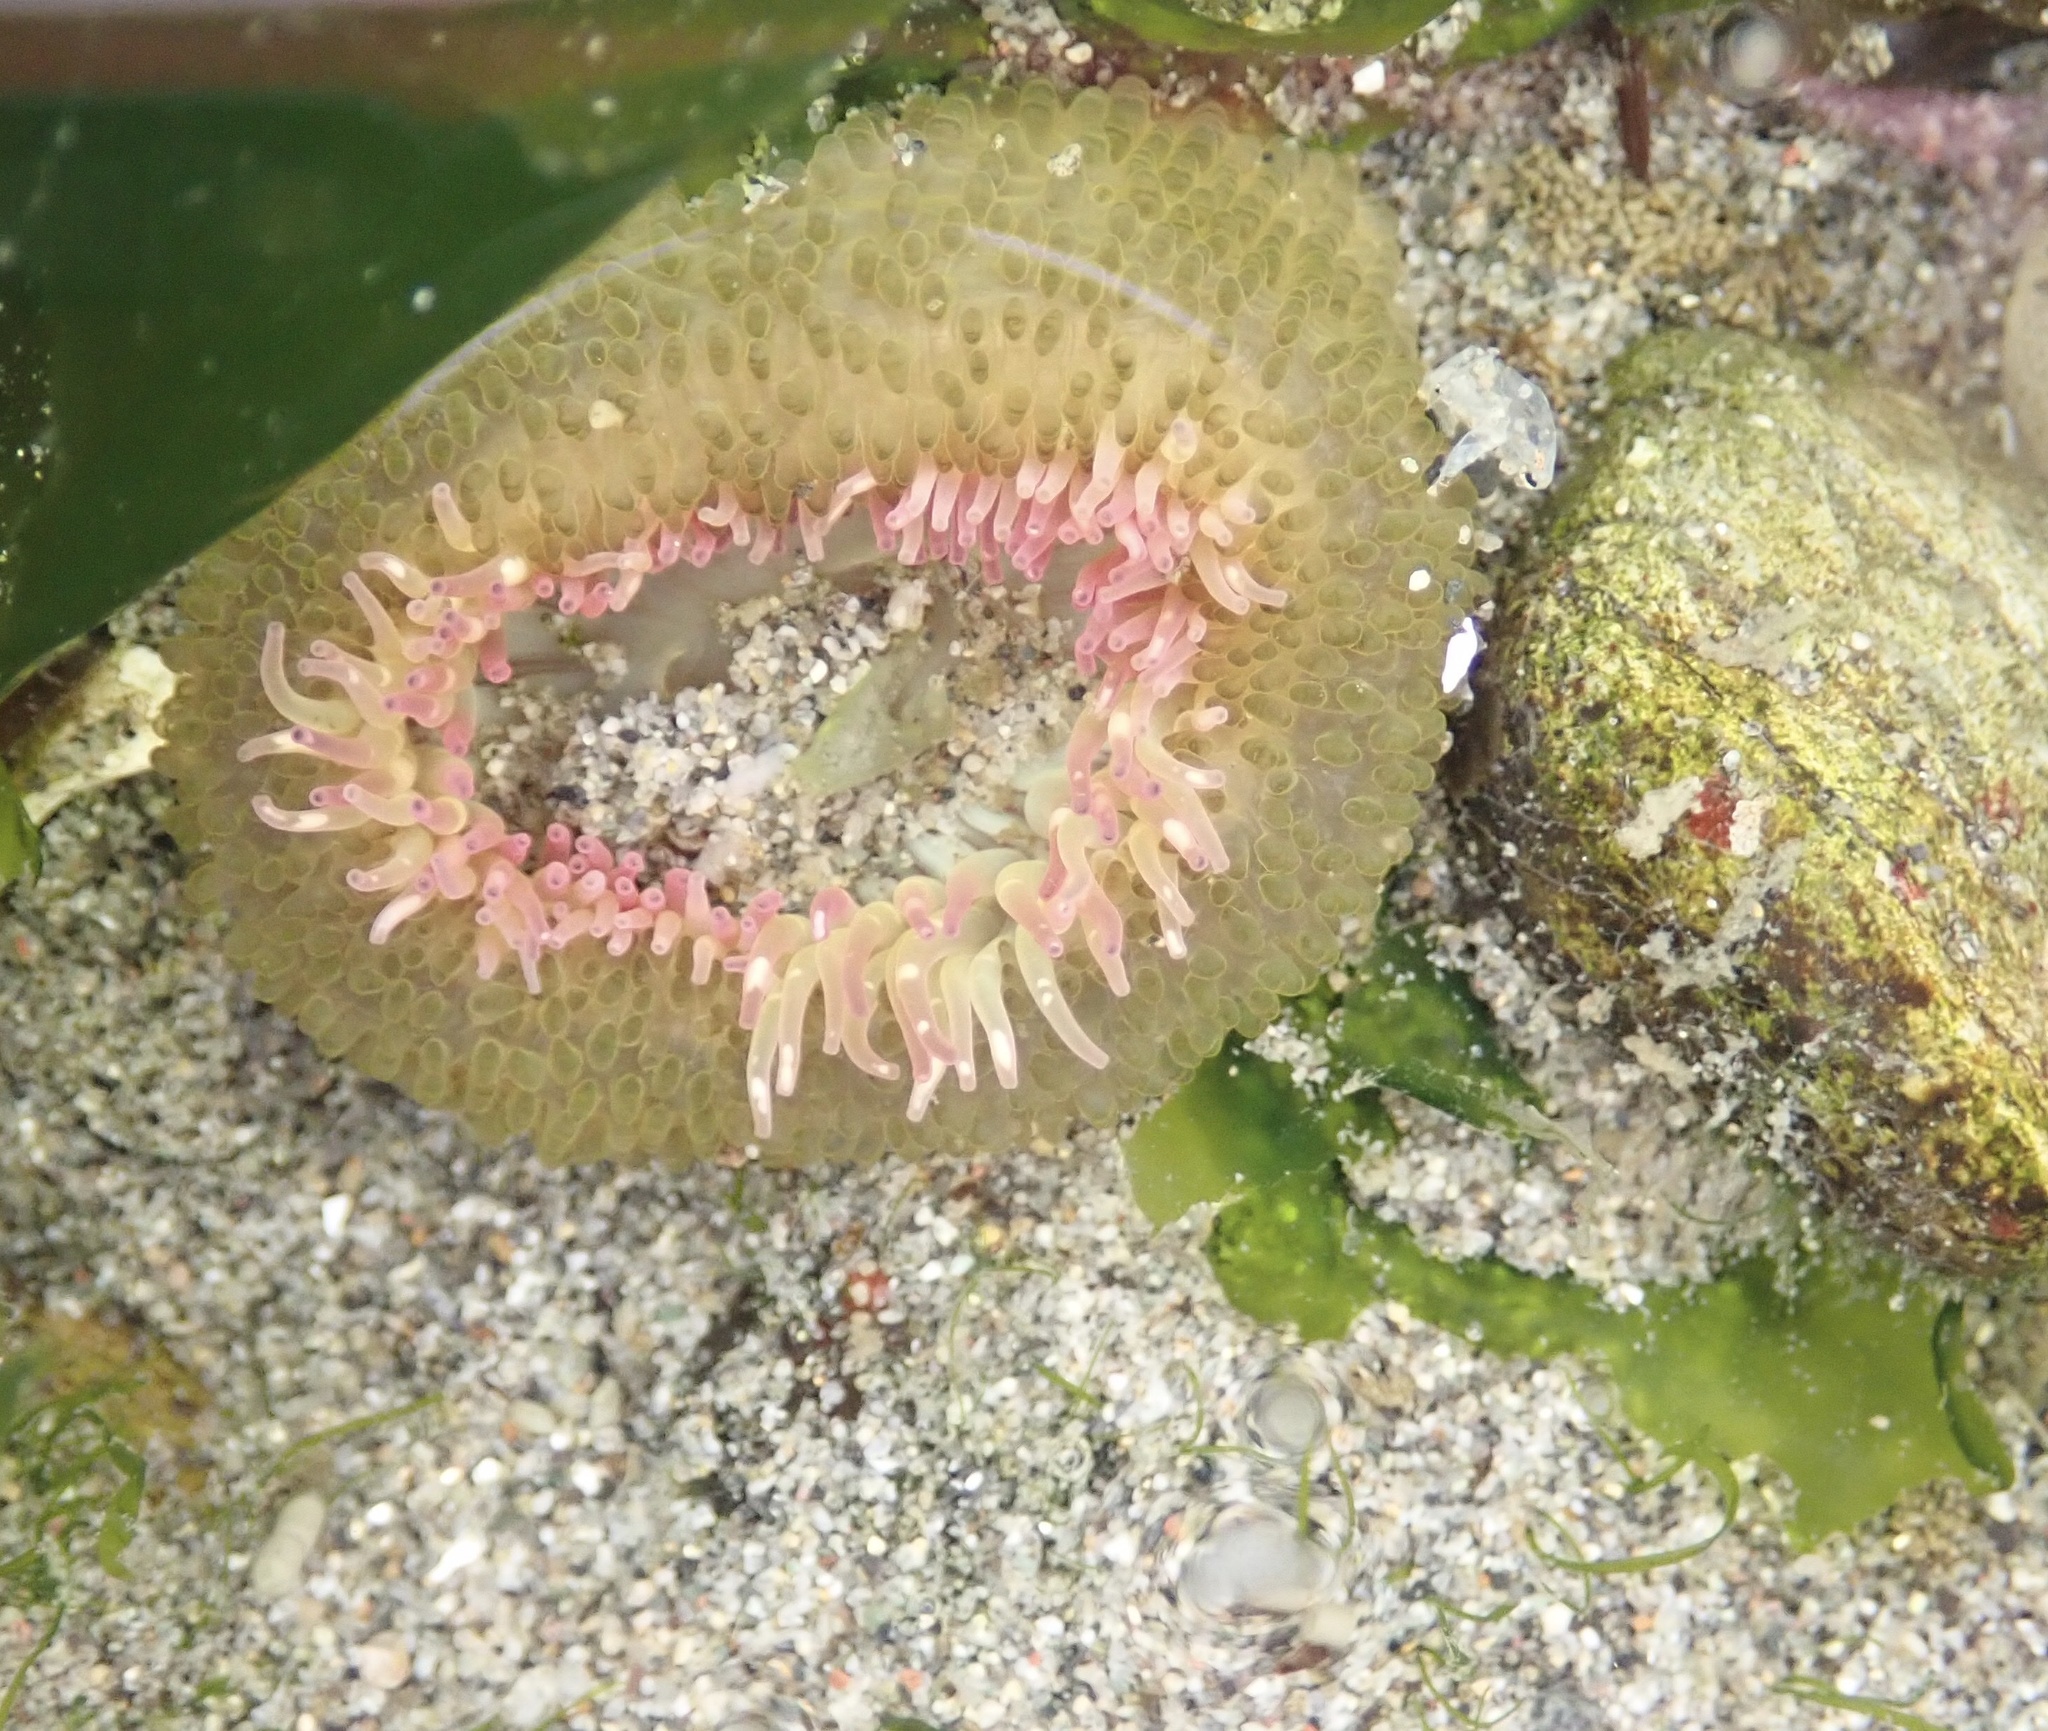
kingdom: Animalia
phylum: Cnidaria
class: Anthozoa
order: Actiniaria
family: Actiniidae
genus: Anthopleura
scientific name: Anthopleura elegantissima
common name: Clonal anemone
